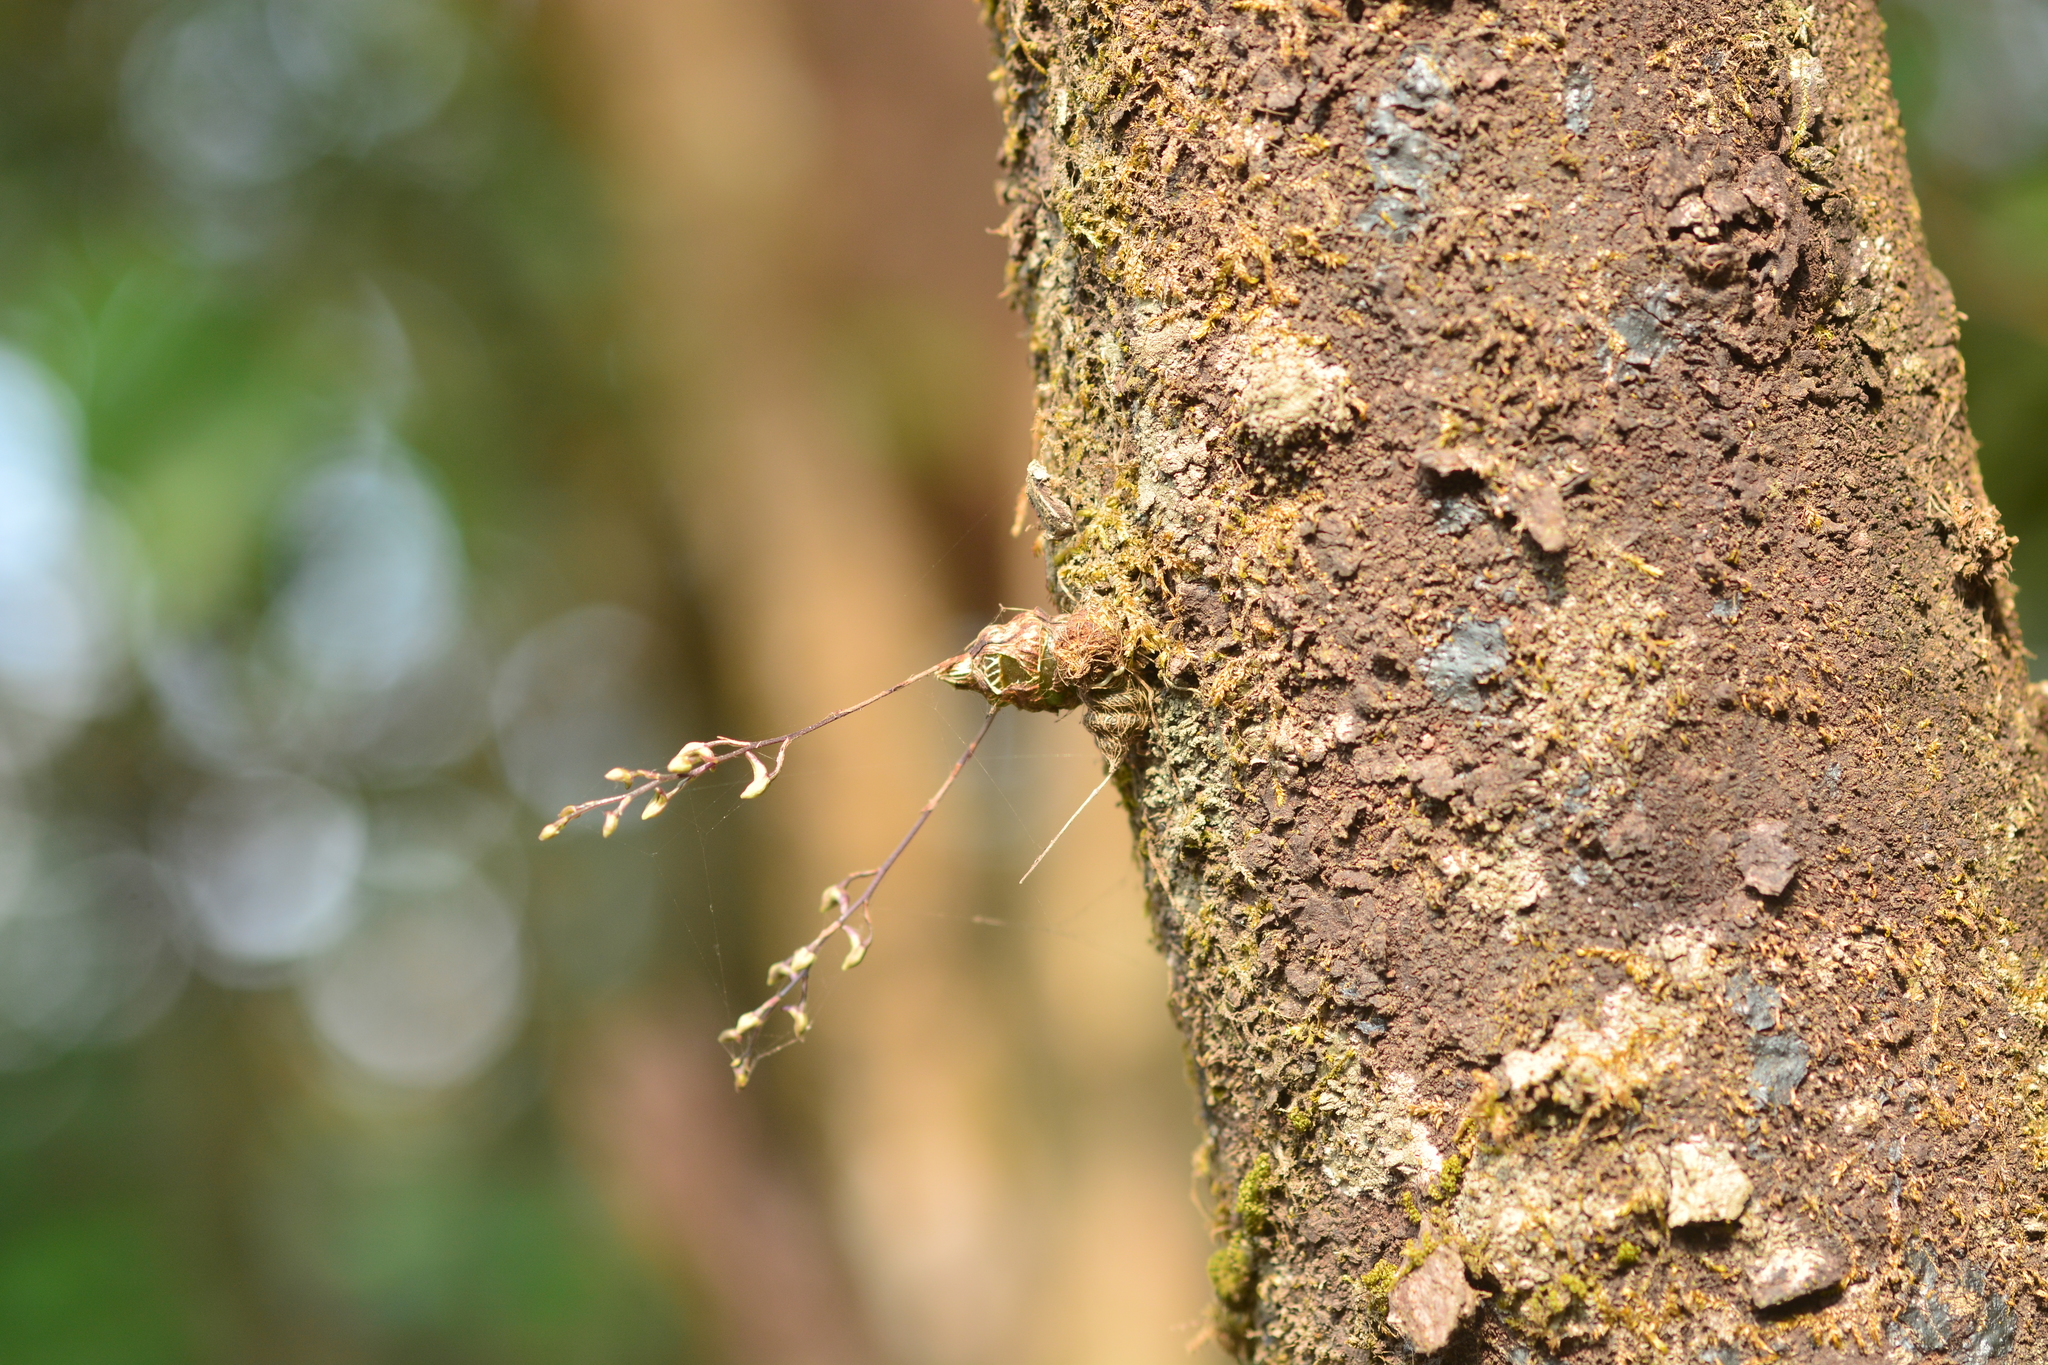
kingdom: Plantae
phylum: Tracheophyta
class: Liliopsida
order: Asparagales
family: Orchidaceae
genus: Dendrobium
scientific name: Dendrobium turbinatum
